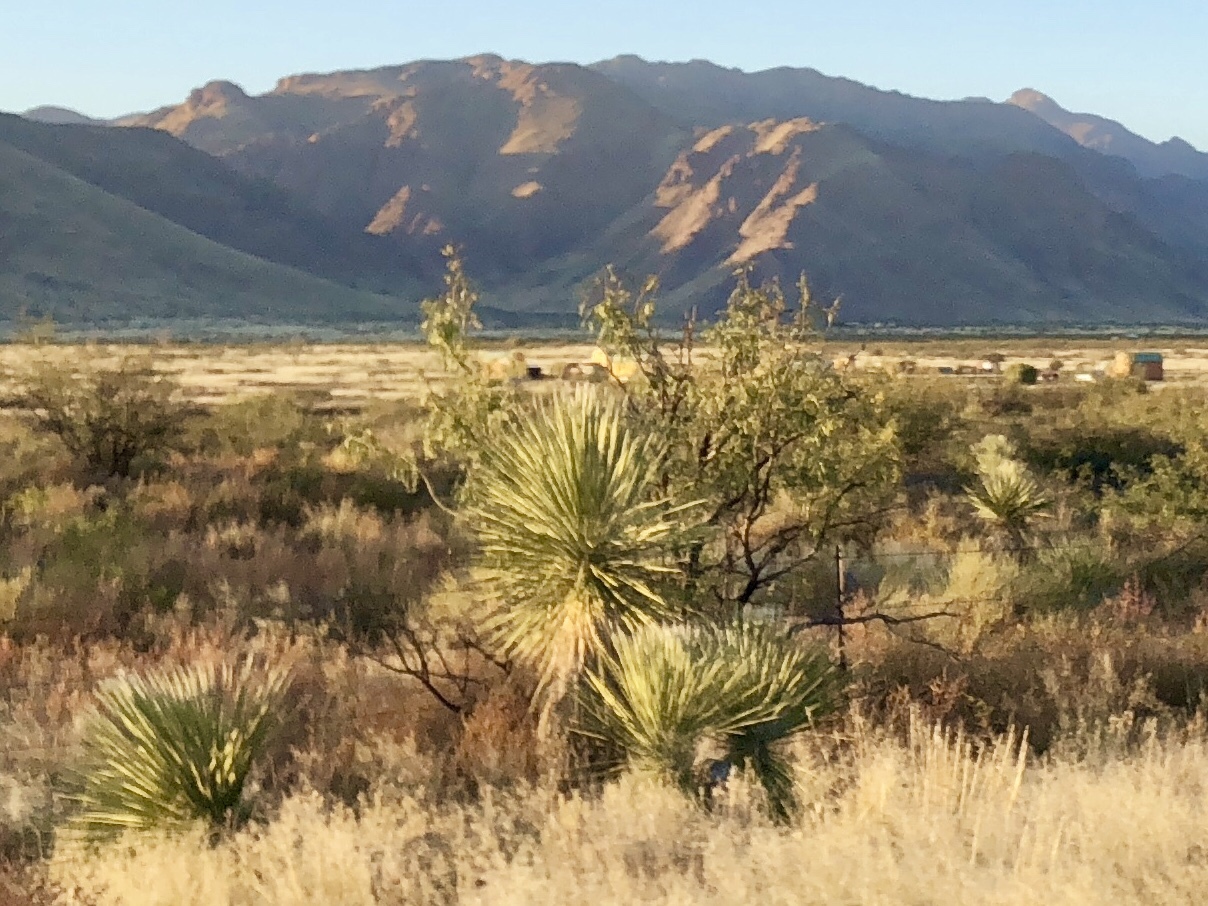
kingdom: Plantae
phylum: Tracheophyta
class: Liliopsida
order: Asparagales
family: Asparagaceae
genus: Yucca
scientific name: Yucca elata
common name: Palmella
